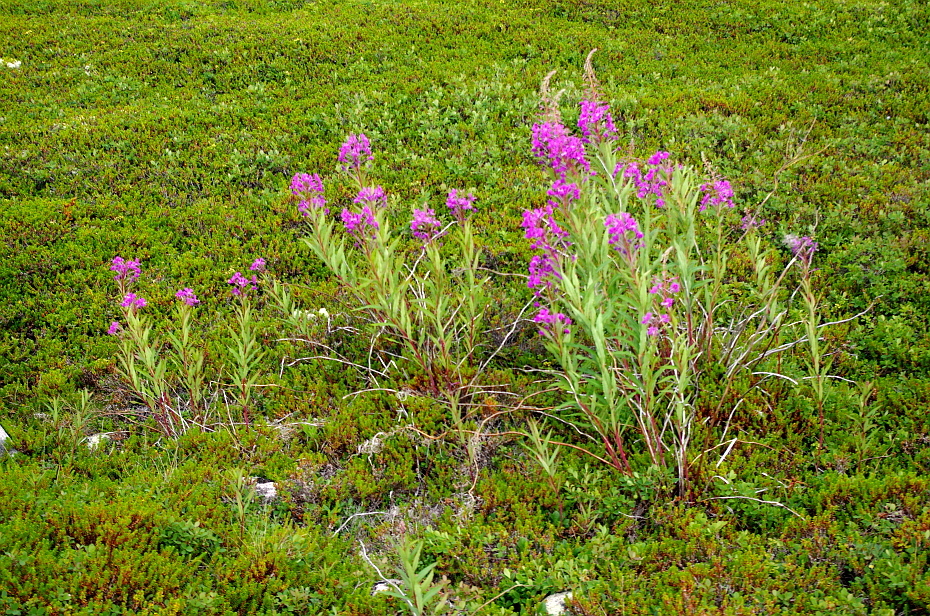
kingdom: Plantae
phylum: Tracheophyta
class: Magnoliopsida
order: Myrtales
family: Onagraceae
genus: Chamaenerion
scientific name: Chamaenerion angustifolium
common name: Fireweed
